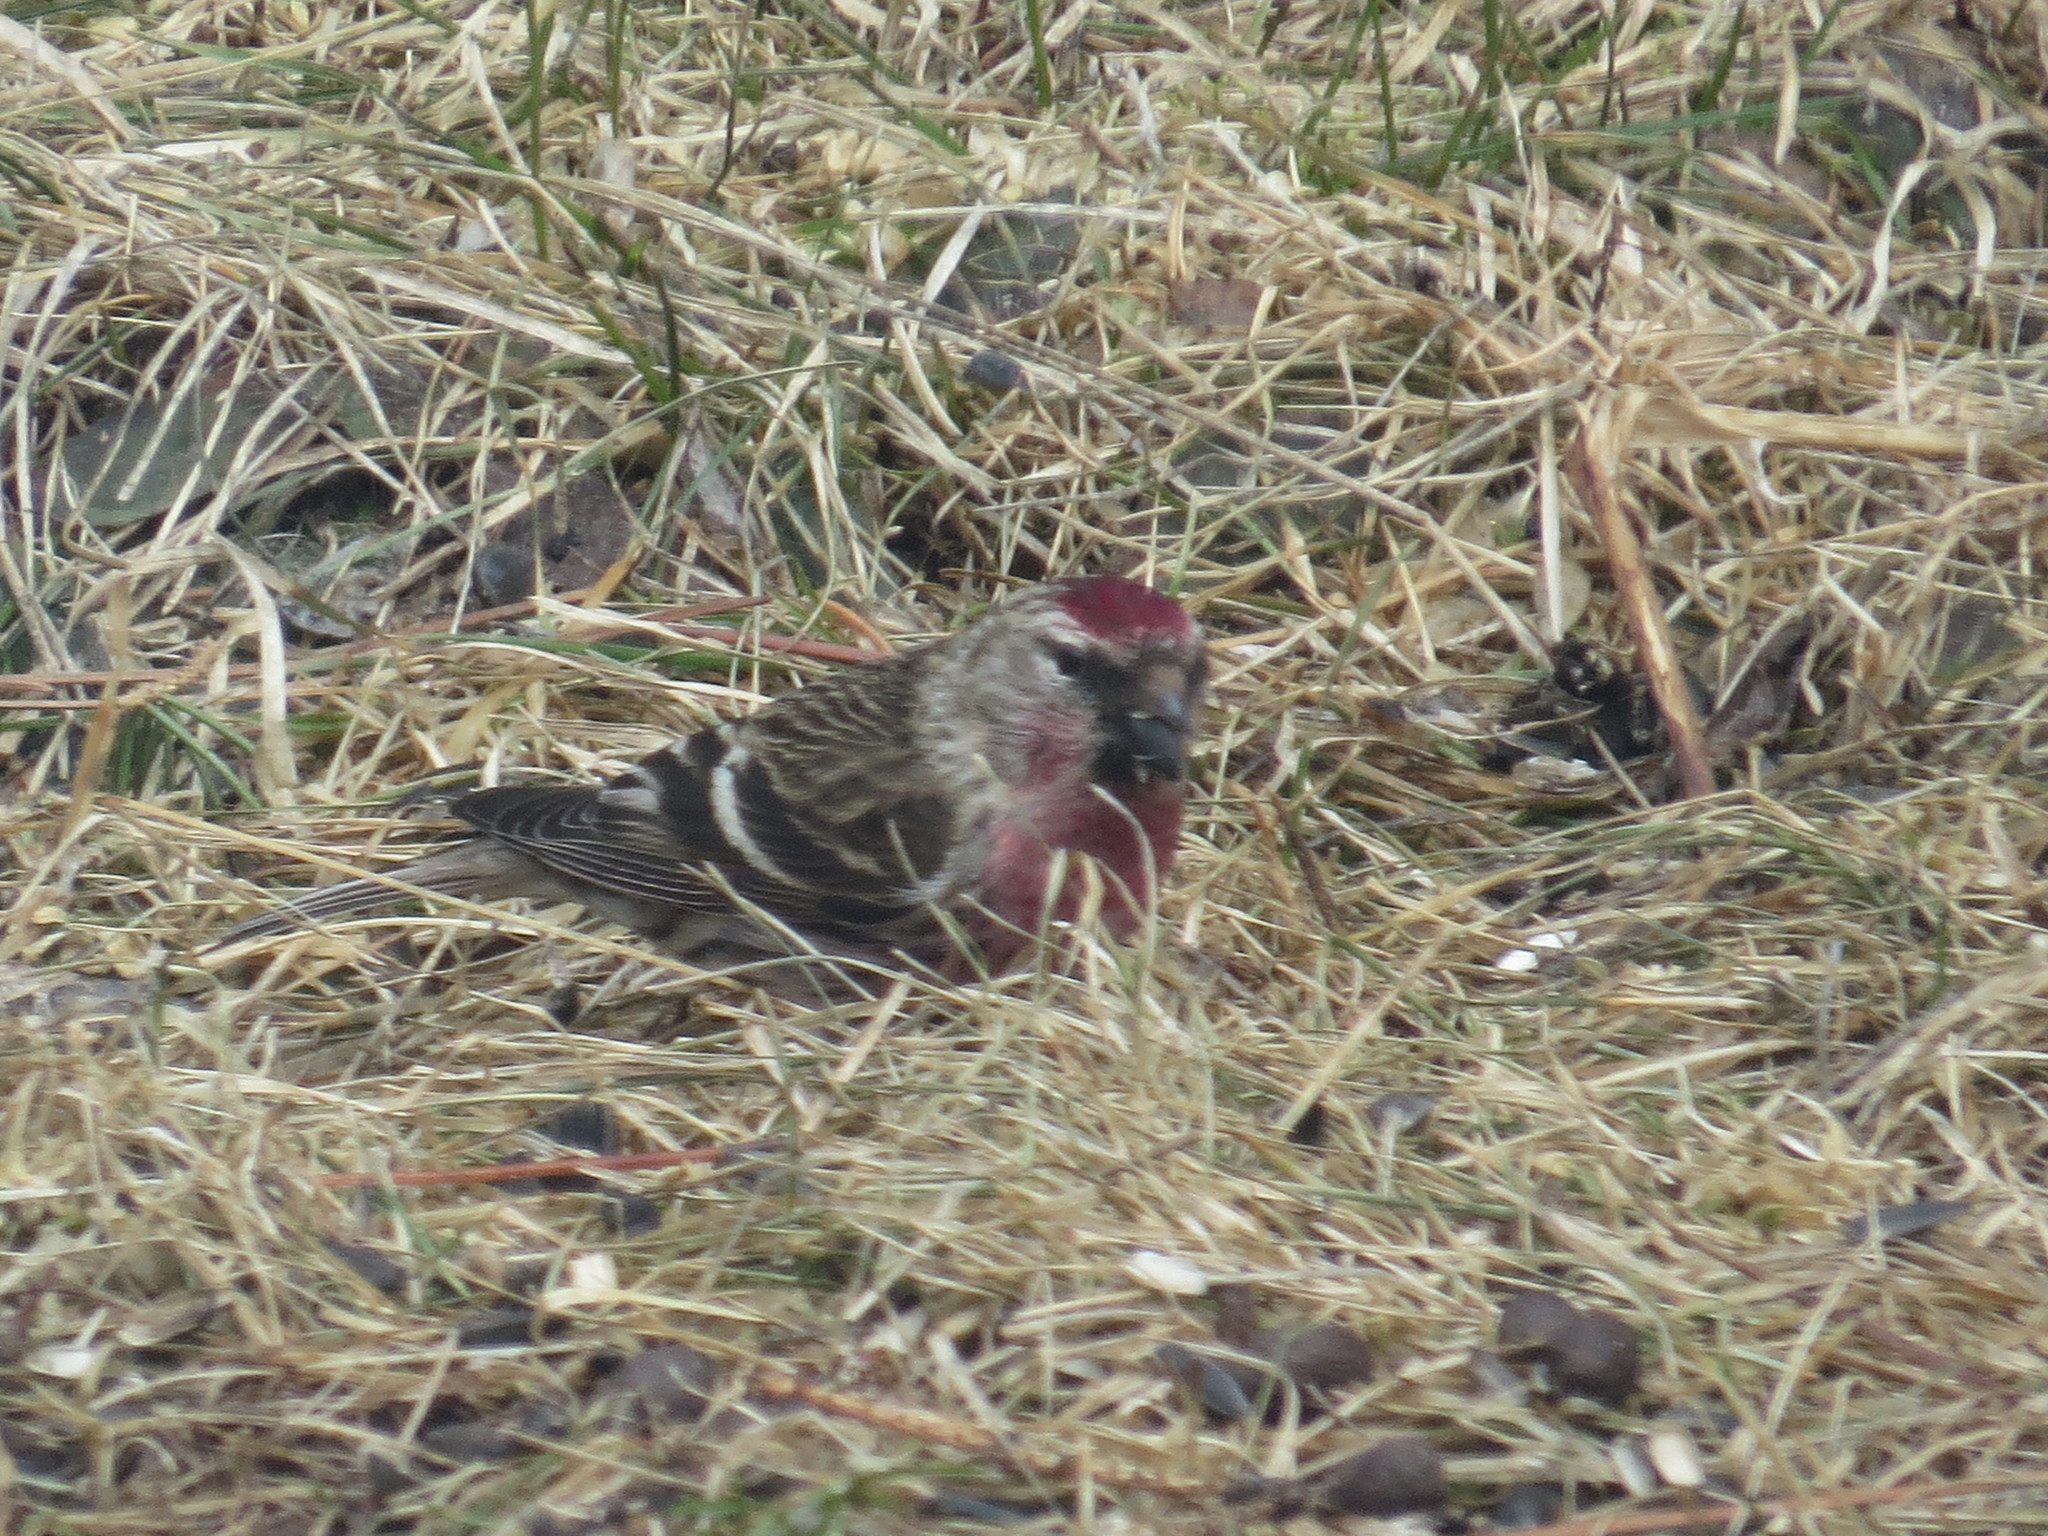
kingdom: Animalia
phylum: Chordata
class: Aves
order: Passeriformes
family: Fringillidae
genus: Acanthis
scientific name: Acanthis flammea
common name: Common redpoll
